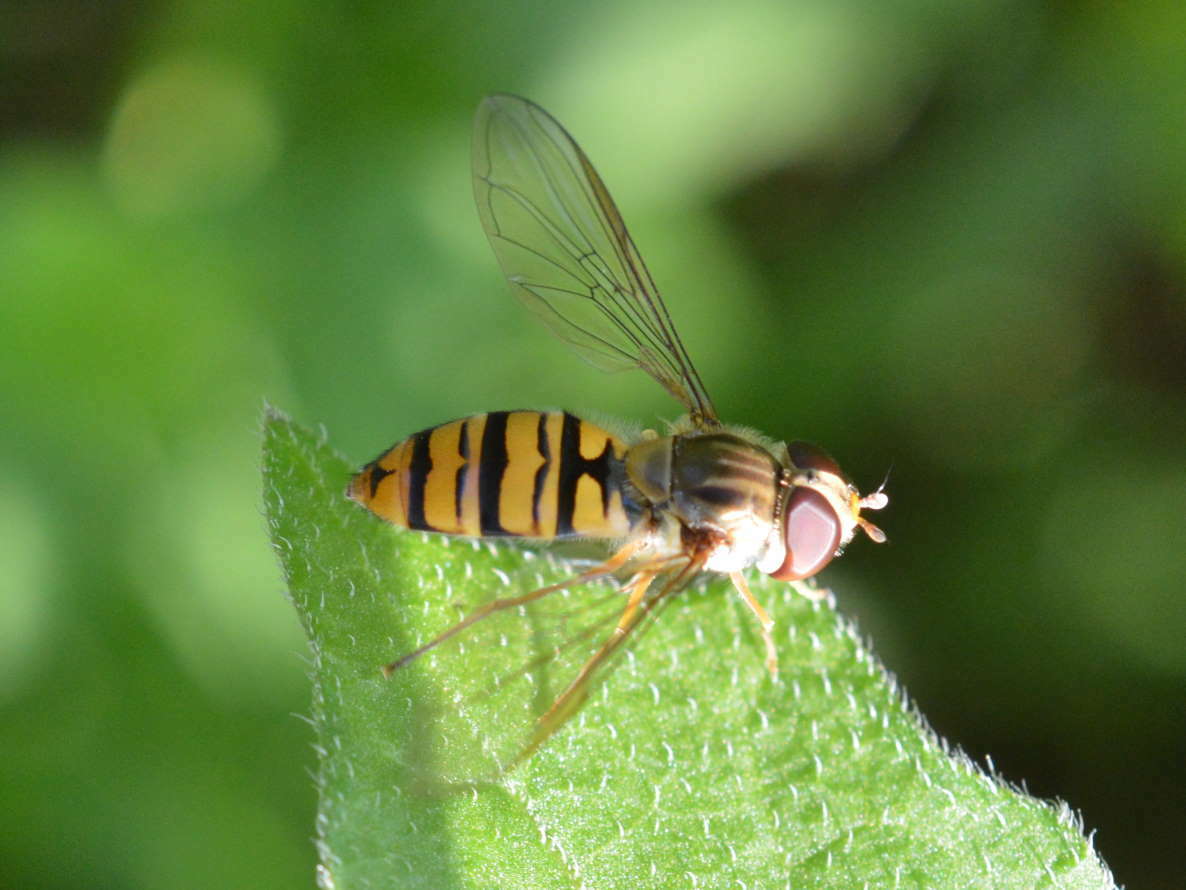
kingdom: Animalia
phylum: Arthropoda
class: Insecta
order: Diptera
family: Syrphidae
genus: Episyrphus
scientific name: Episyrphus balteatus
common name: Marmalade hoverfly
